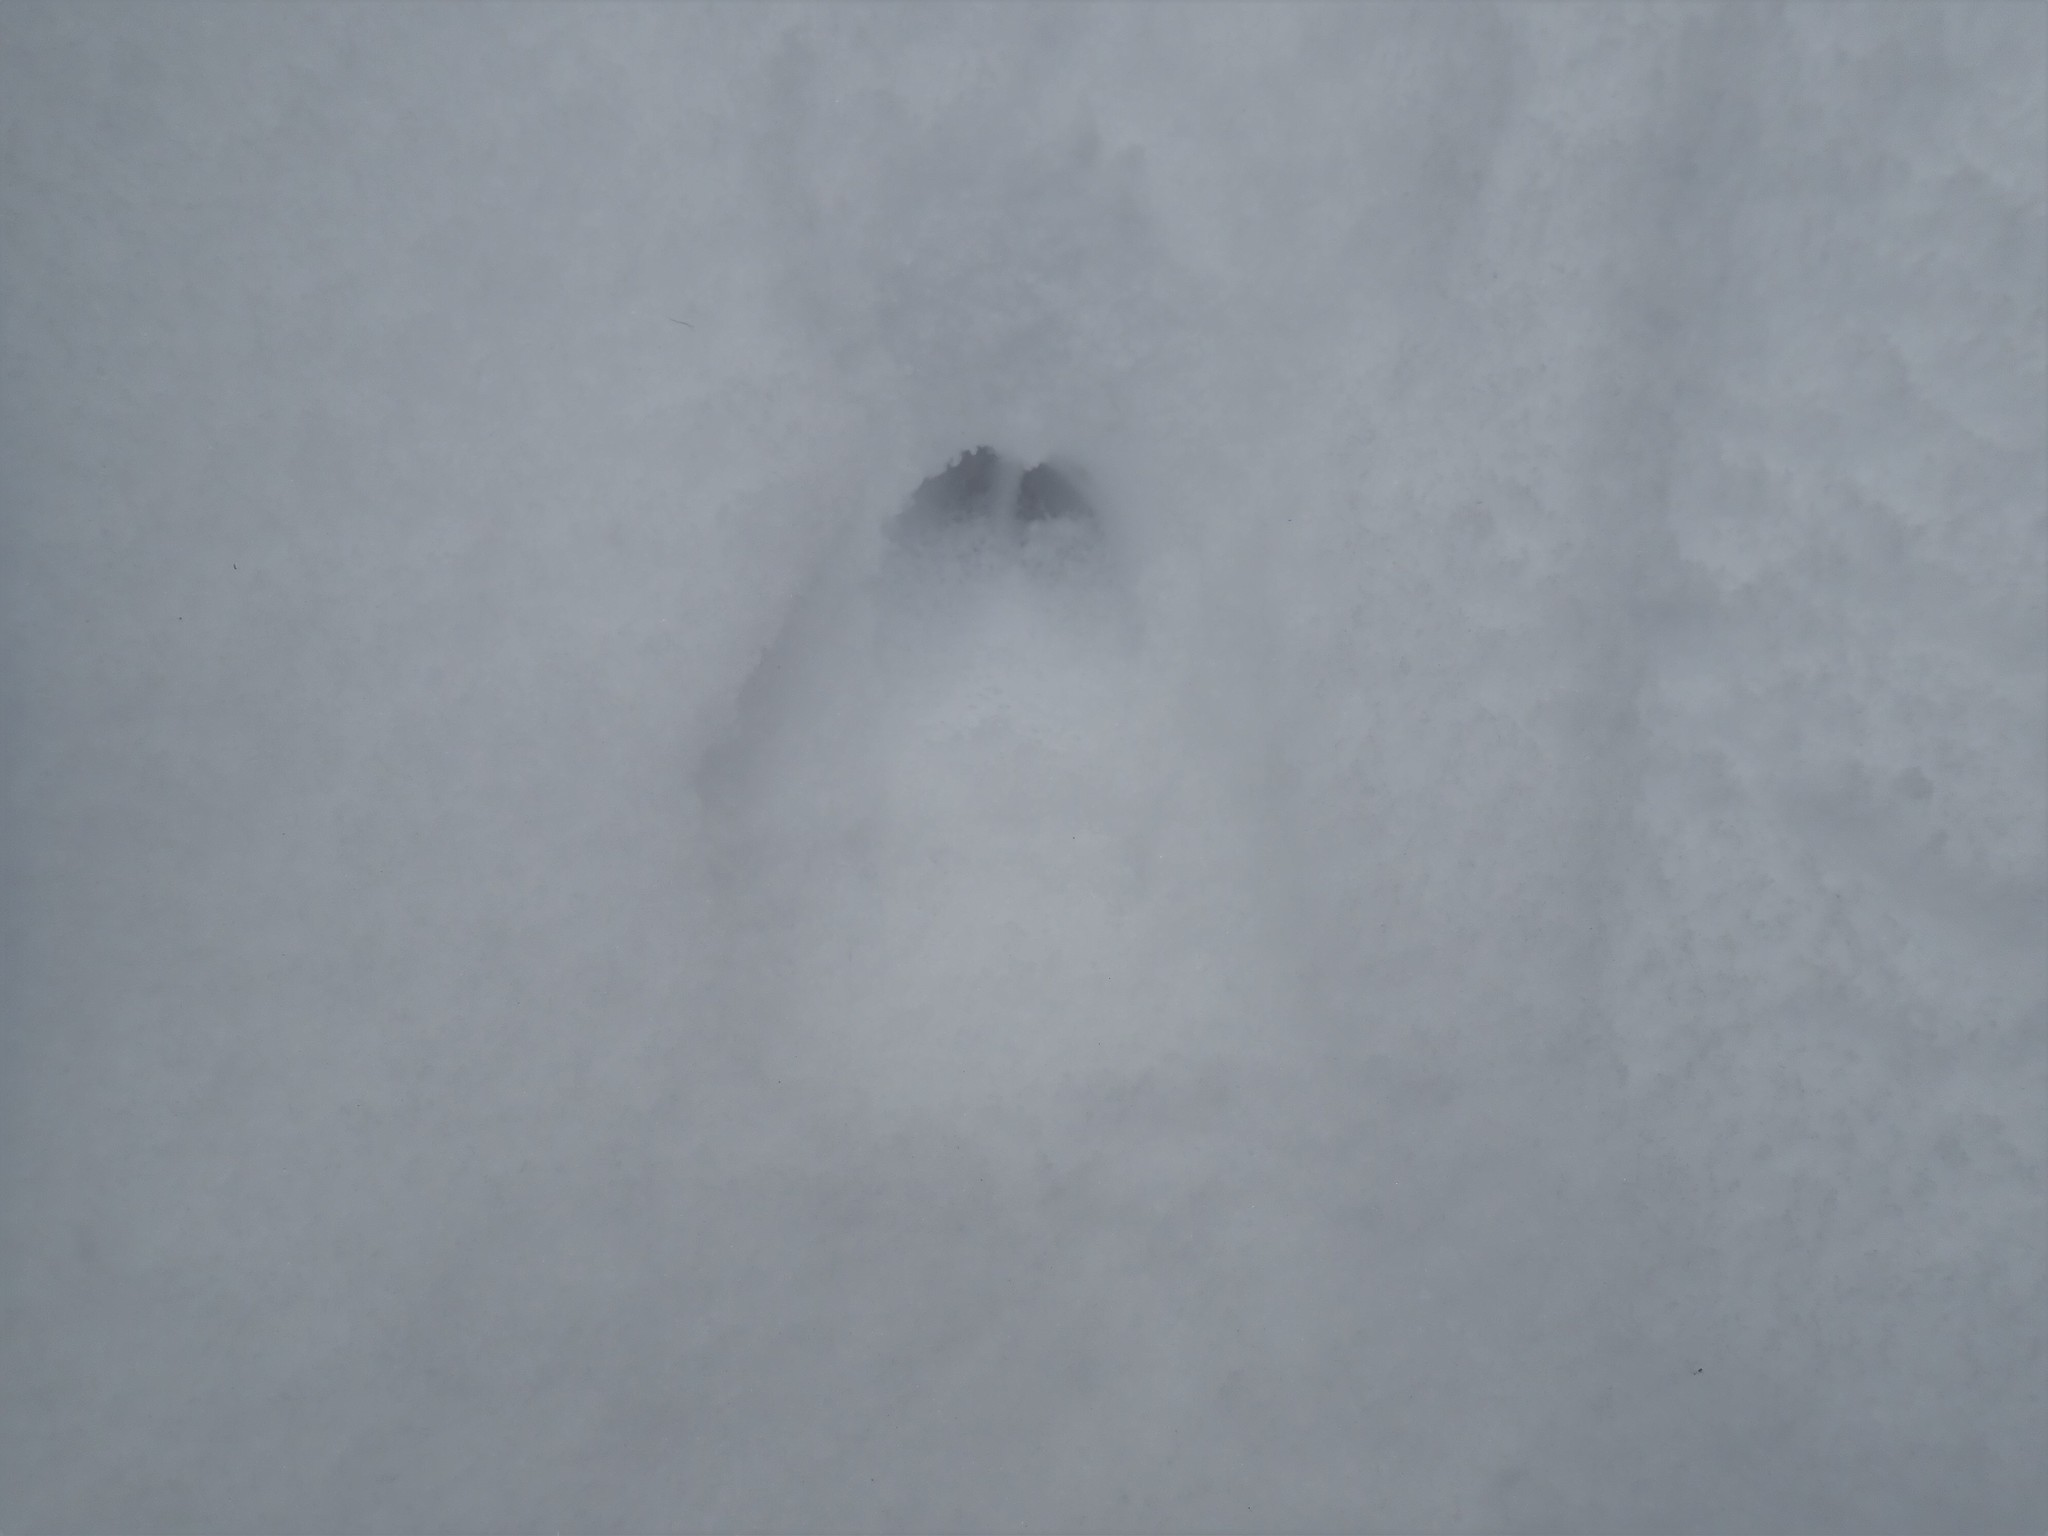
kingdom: Animalia
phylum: Chordata
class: Mammalia
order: Artiodactyla
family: Cervidae
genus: Odocoileus
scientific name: Odocoileus virginianus
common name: White-tailed deer
